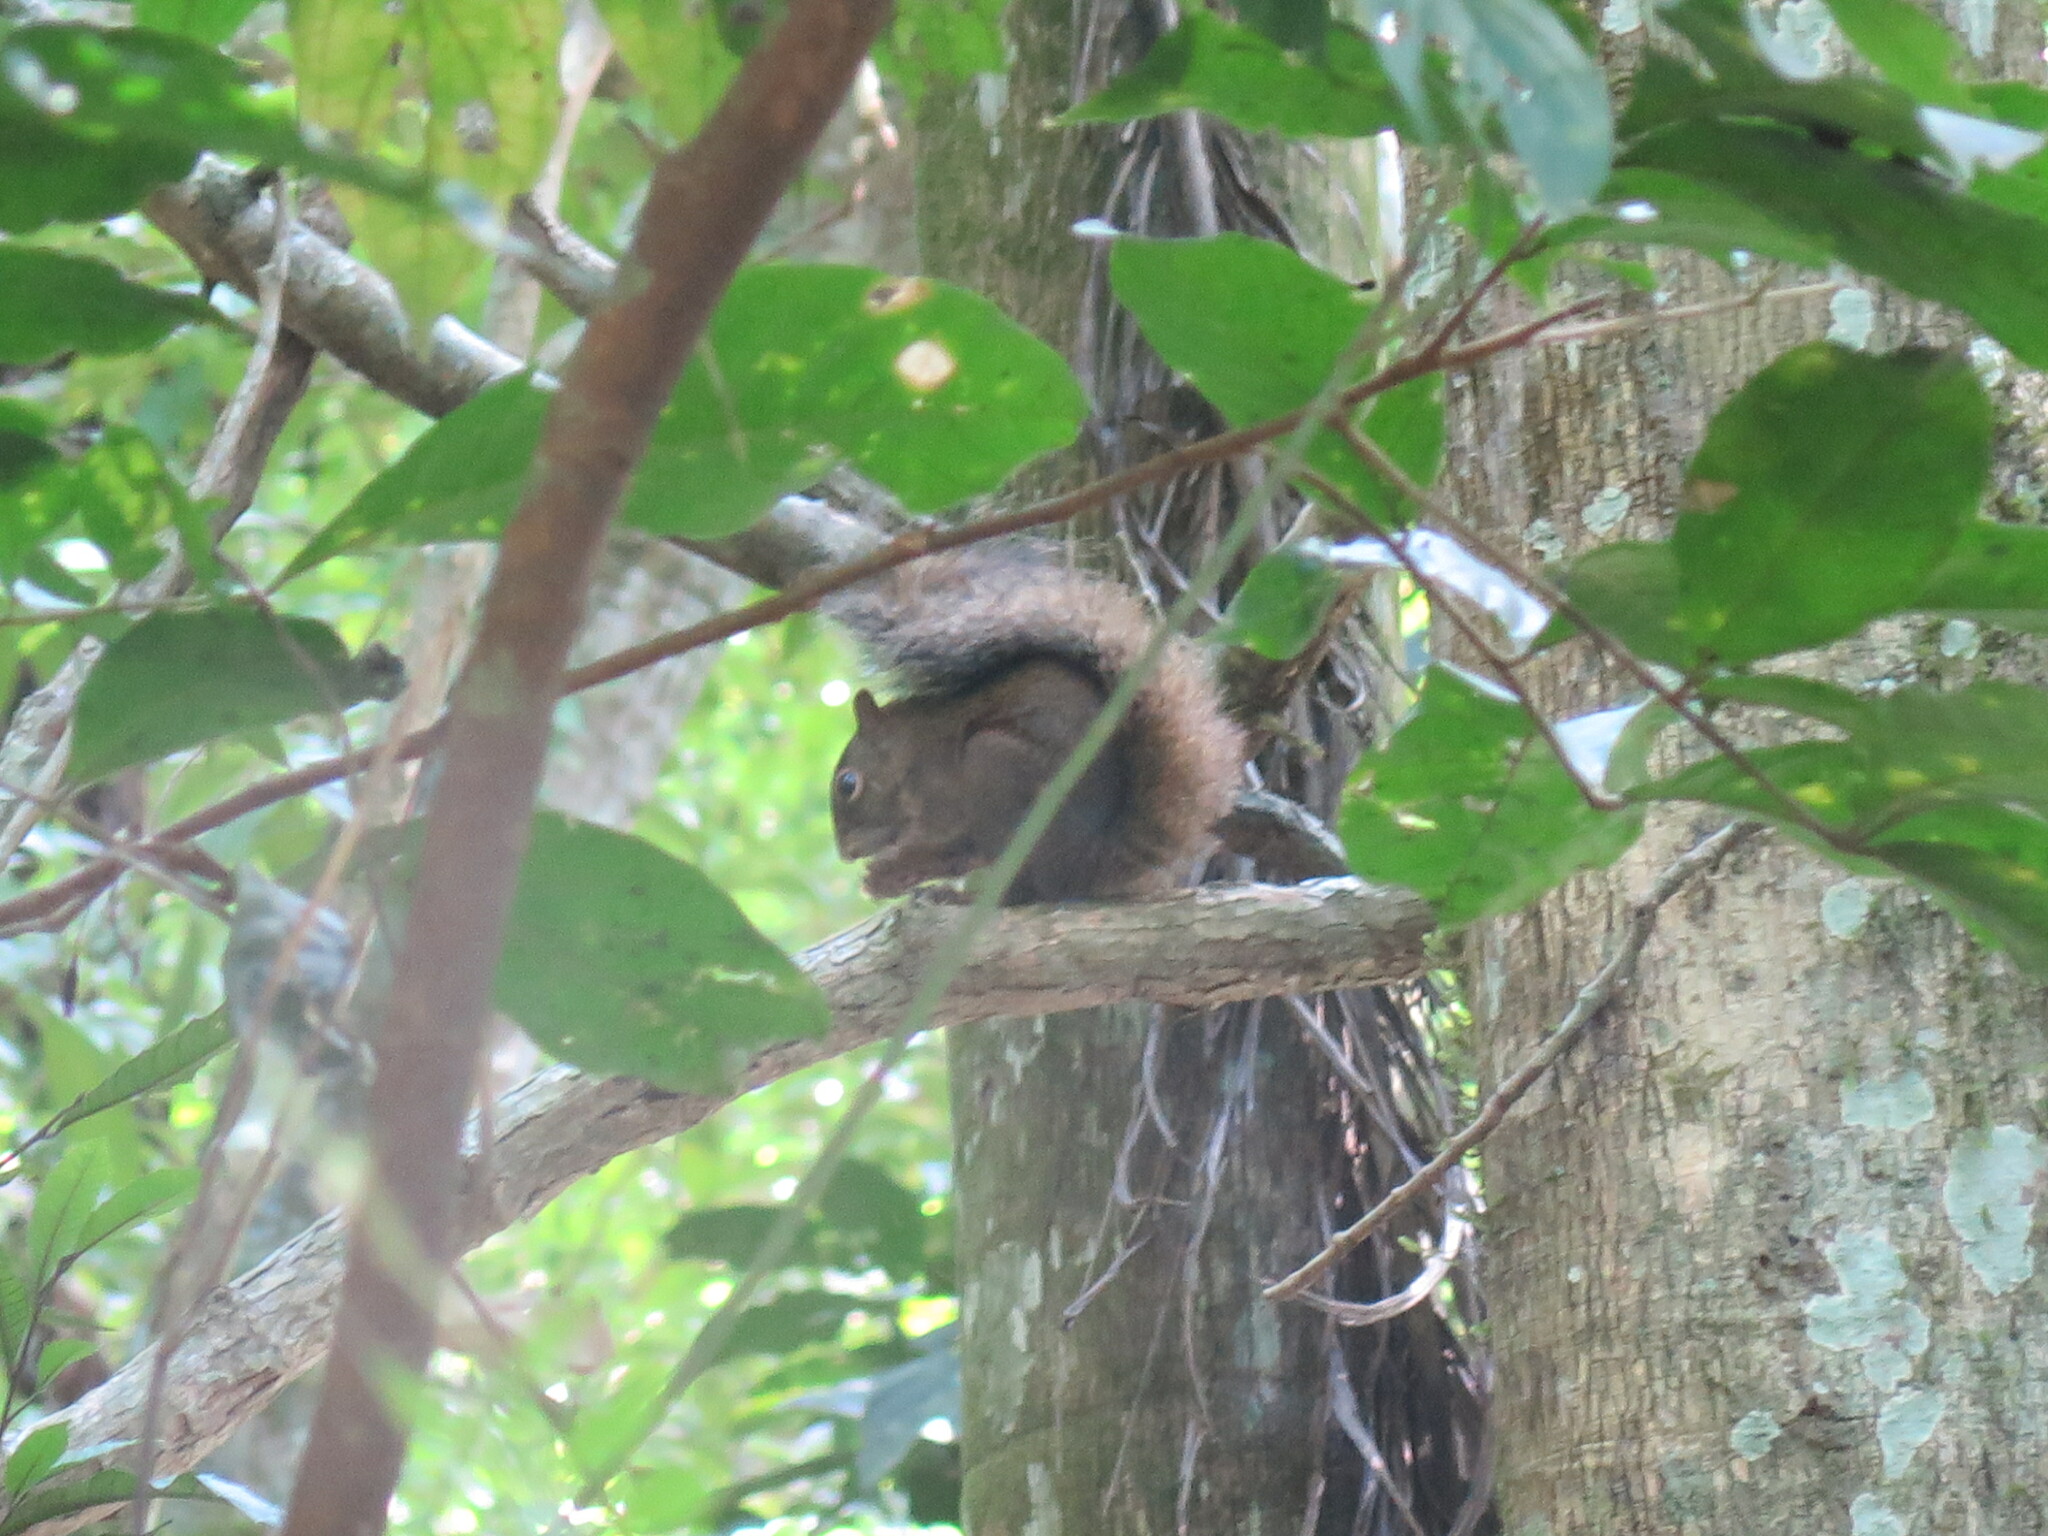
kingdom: Animalia
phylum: Chordata
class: Mammalia
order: Rodentia
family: Sciuridae
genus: Sciurus
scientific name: Sciurus aestuans
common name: Guianan squirrel
